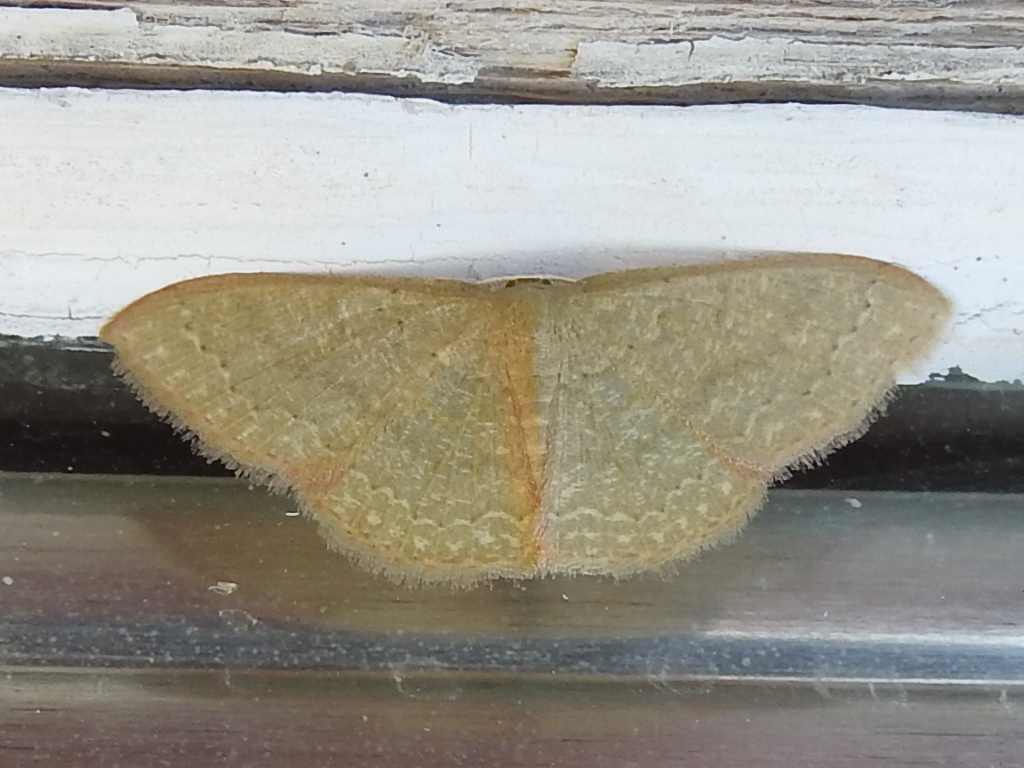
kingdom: Animalia
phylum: Arthropoda
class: Insecta
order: Lepidoptera
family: Geometridae
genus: Pleuroprucha
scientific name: Pleuroprucha insulsaria
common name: Common tan wave
